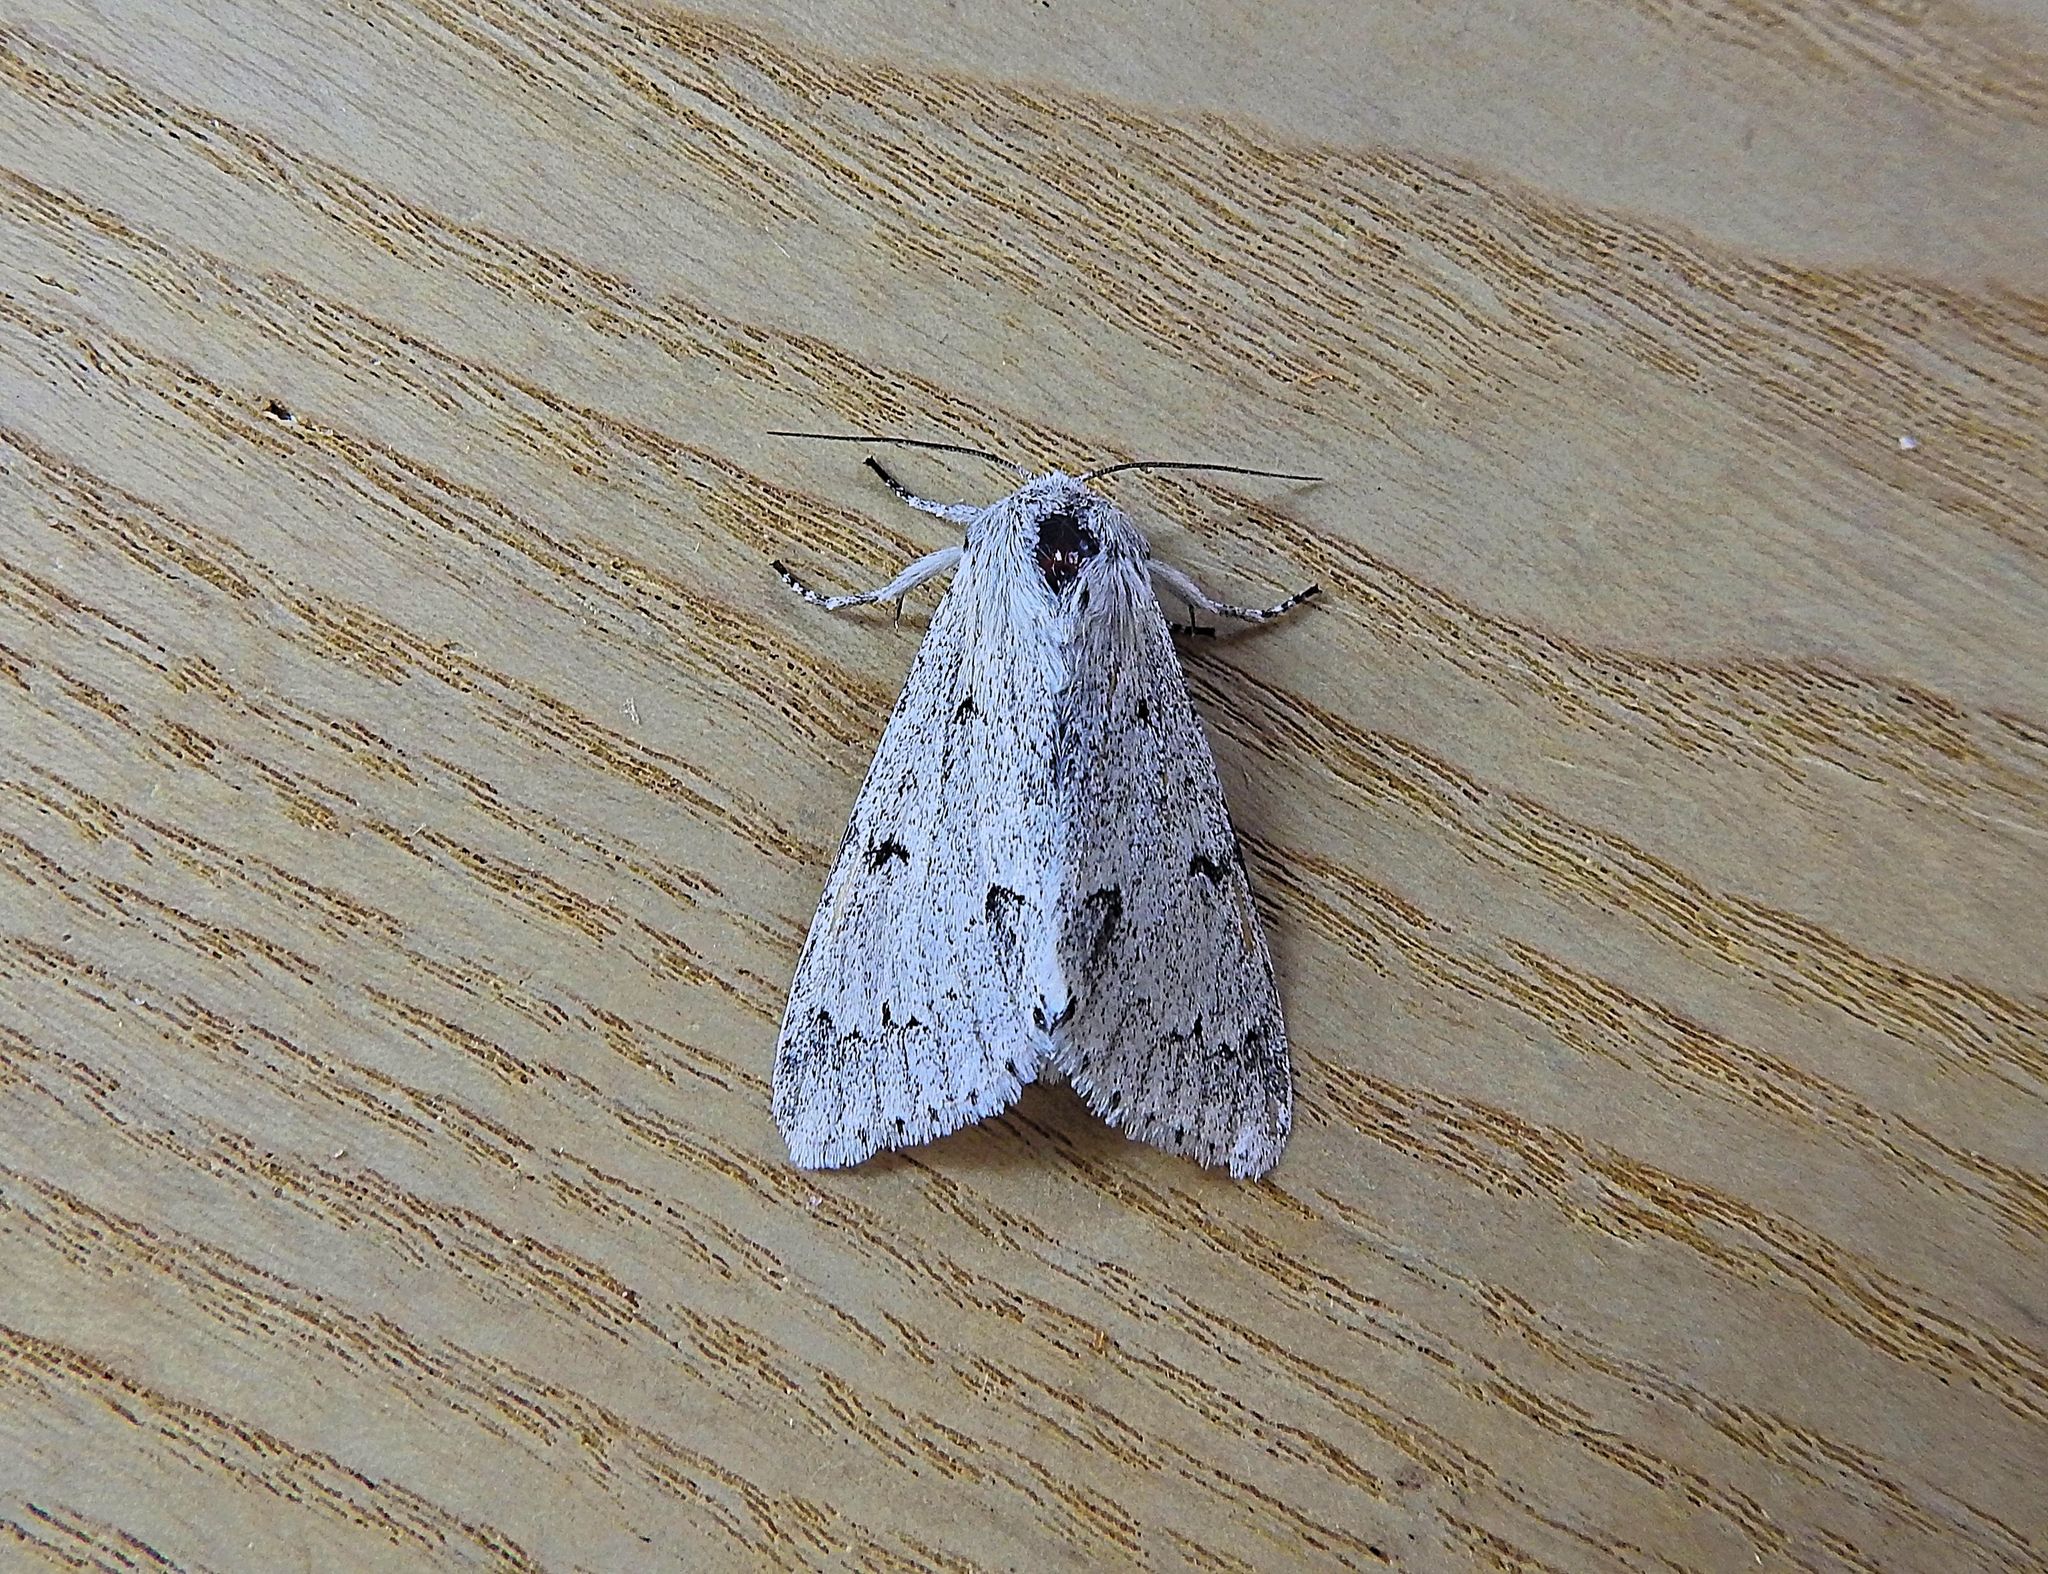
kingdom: Animalia
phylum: Arthropoda
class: Insecta
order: Lepidoptera
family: Noctuidae
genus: Acronicta
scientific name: Acronicta leporina
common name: Miller
